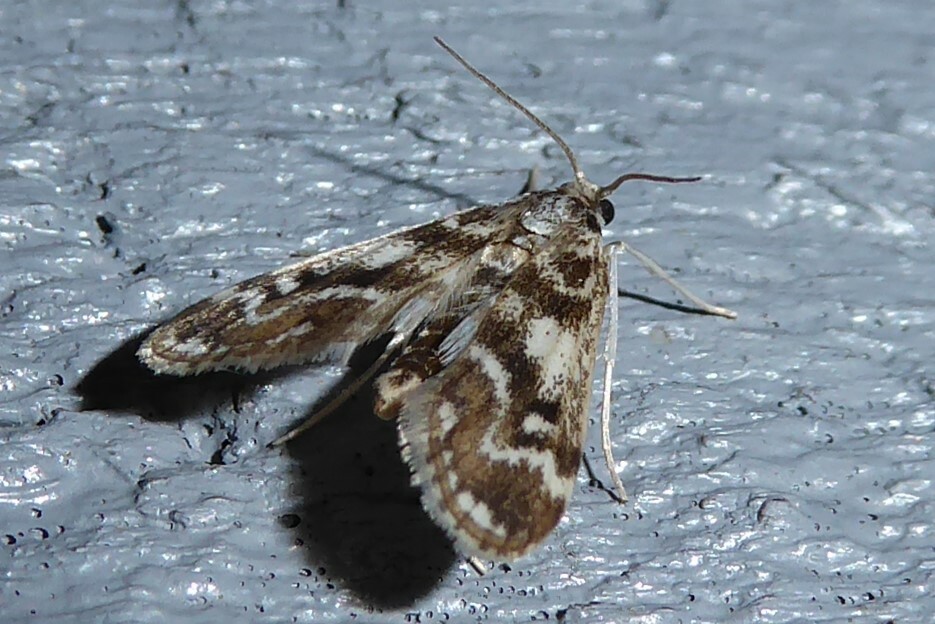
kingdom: Animalia
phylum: Arthropoda
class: Insecta
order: Lepidoptera
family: Crambidae
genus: Hygraula
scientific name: Hygraula nitens
